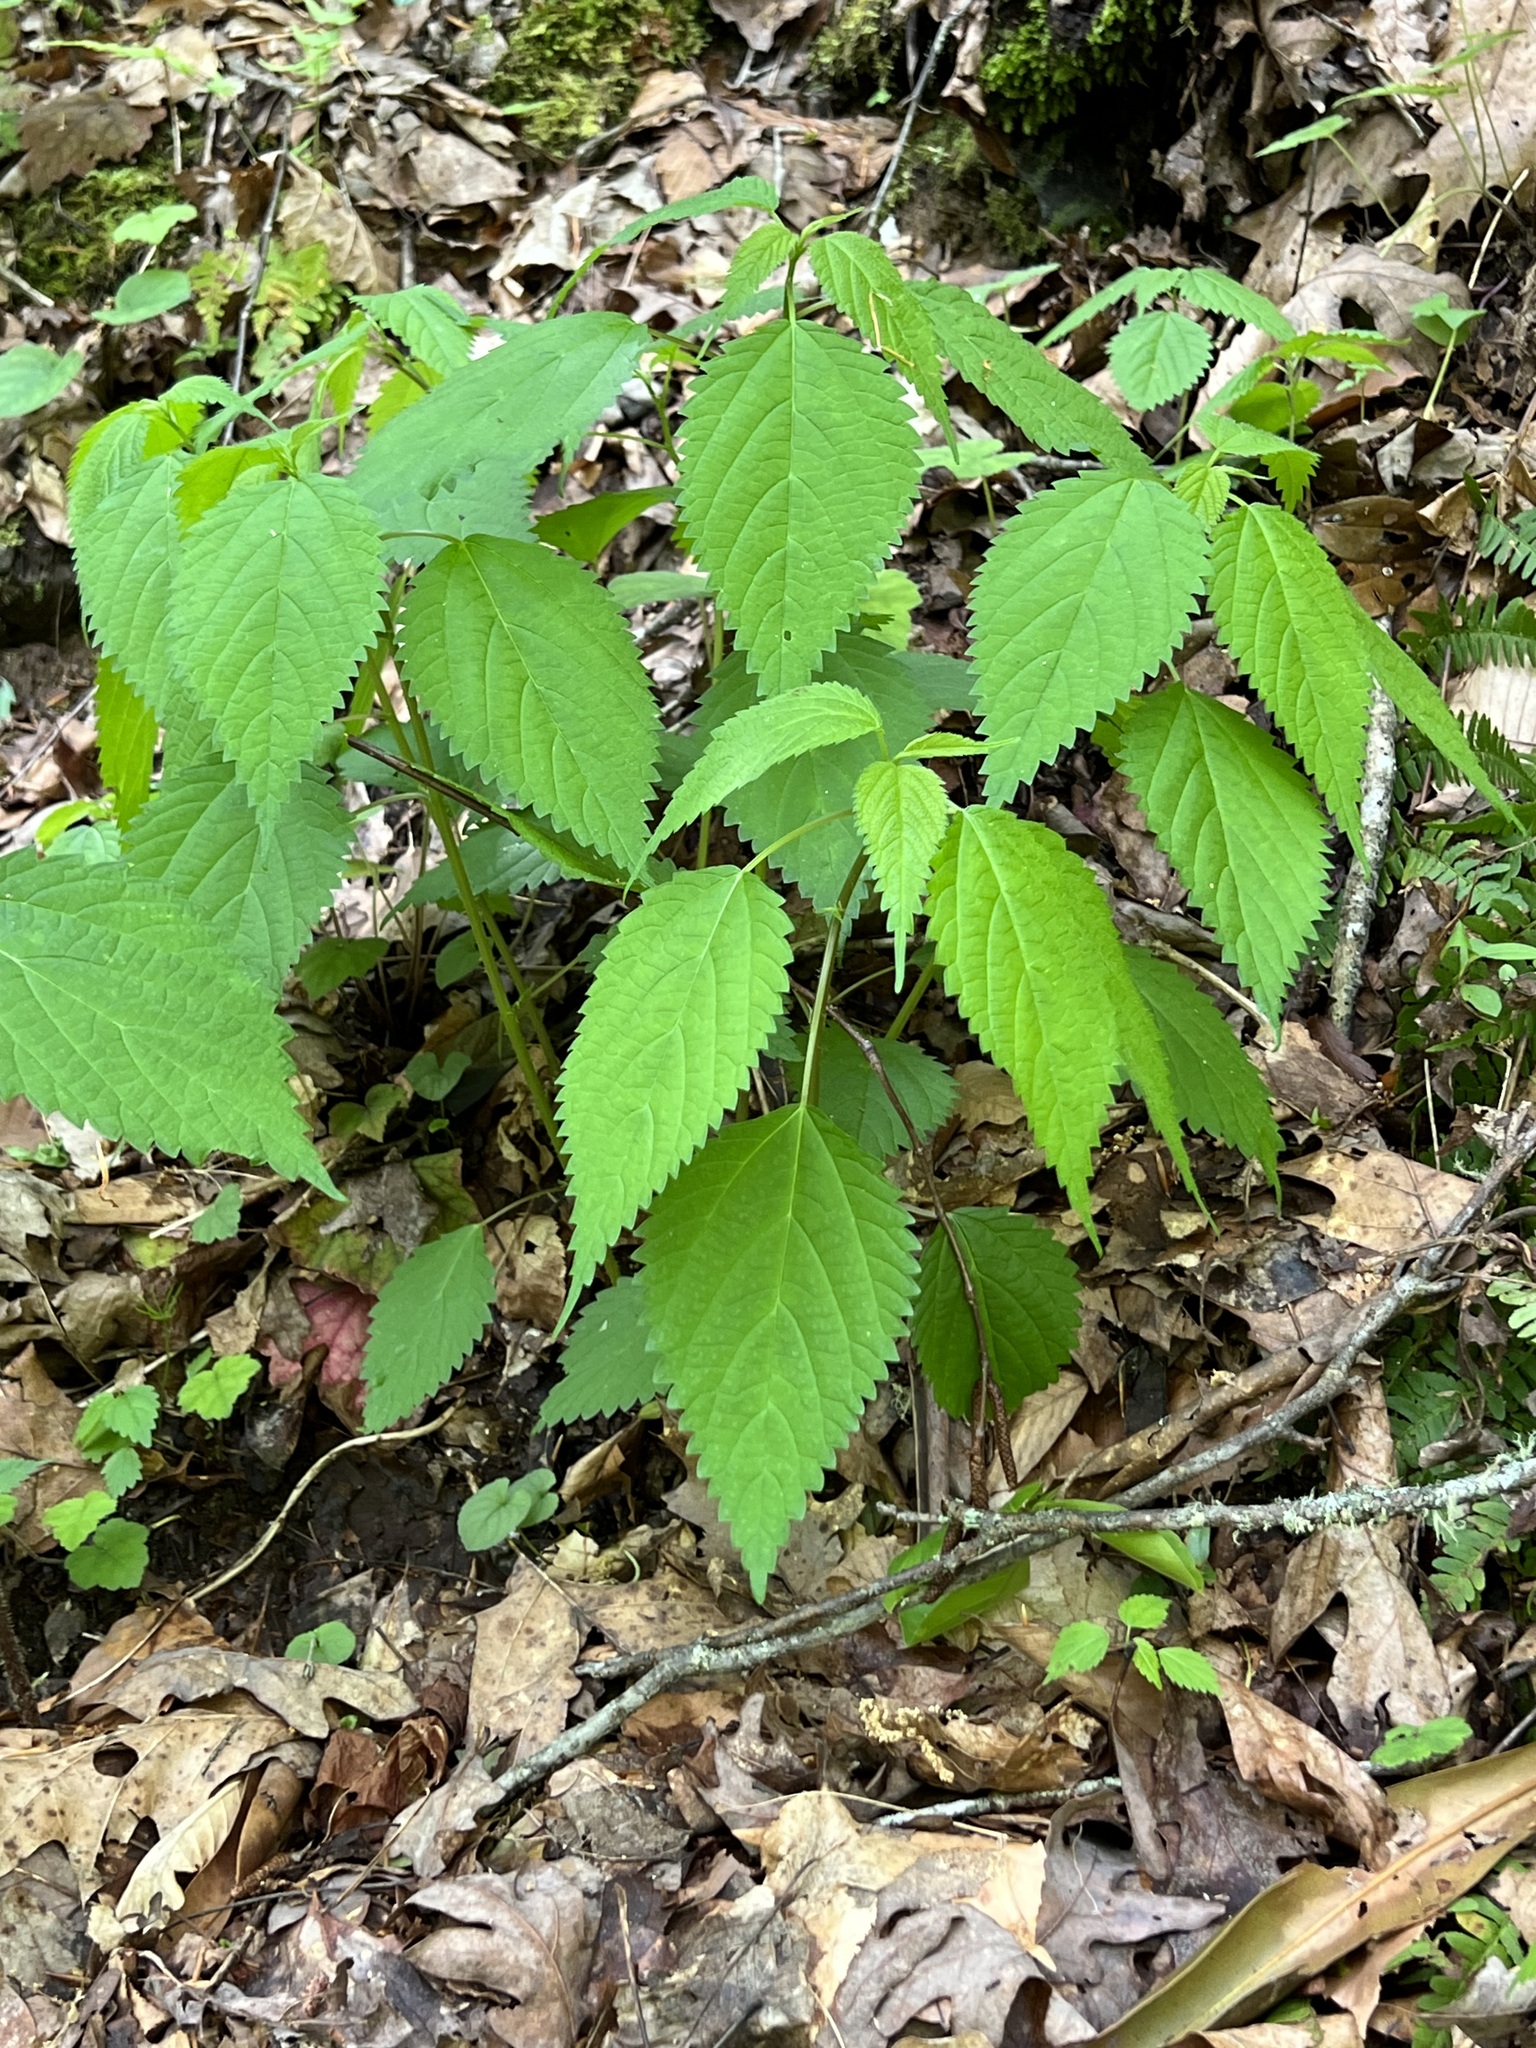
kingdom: Plantae
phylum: Tracheophyta
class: Magnoliopsida
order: Rosales
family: Urticaceae
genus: Laportea
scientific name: Laportea canadensis
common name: Canada nettle
